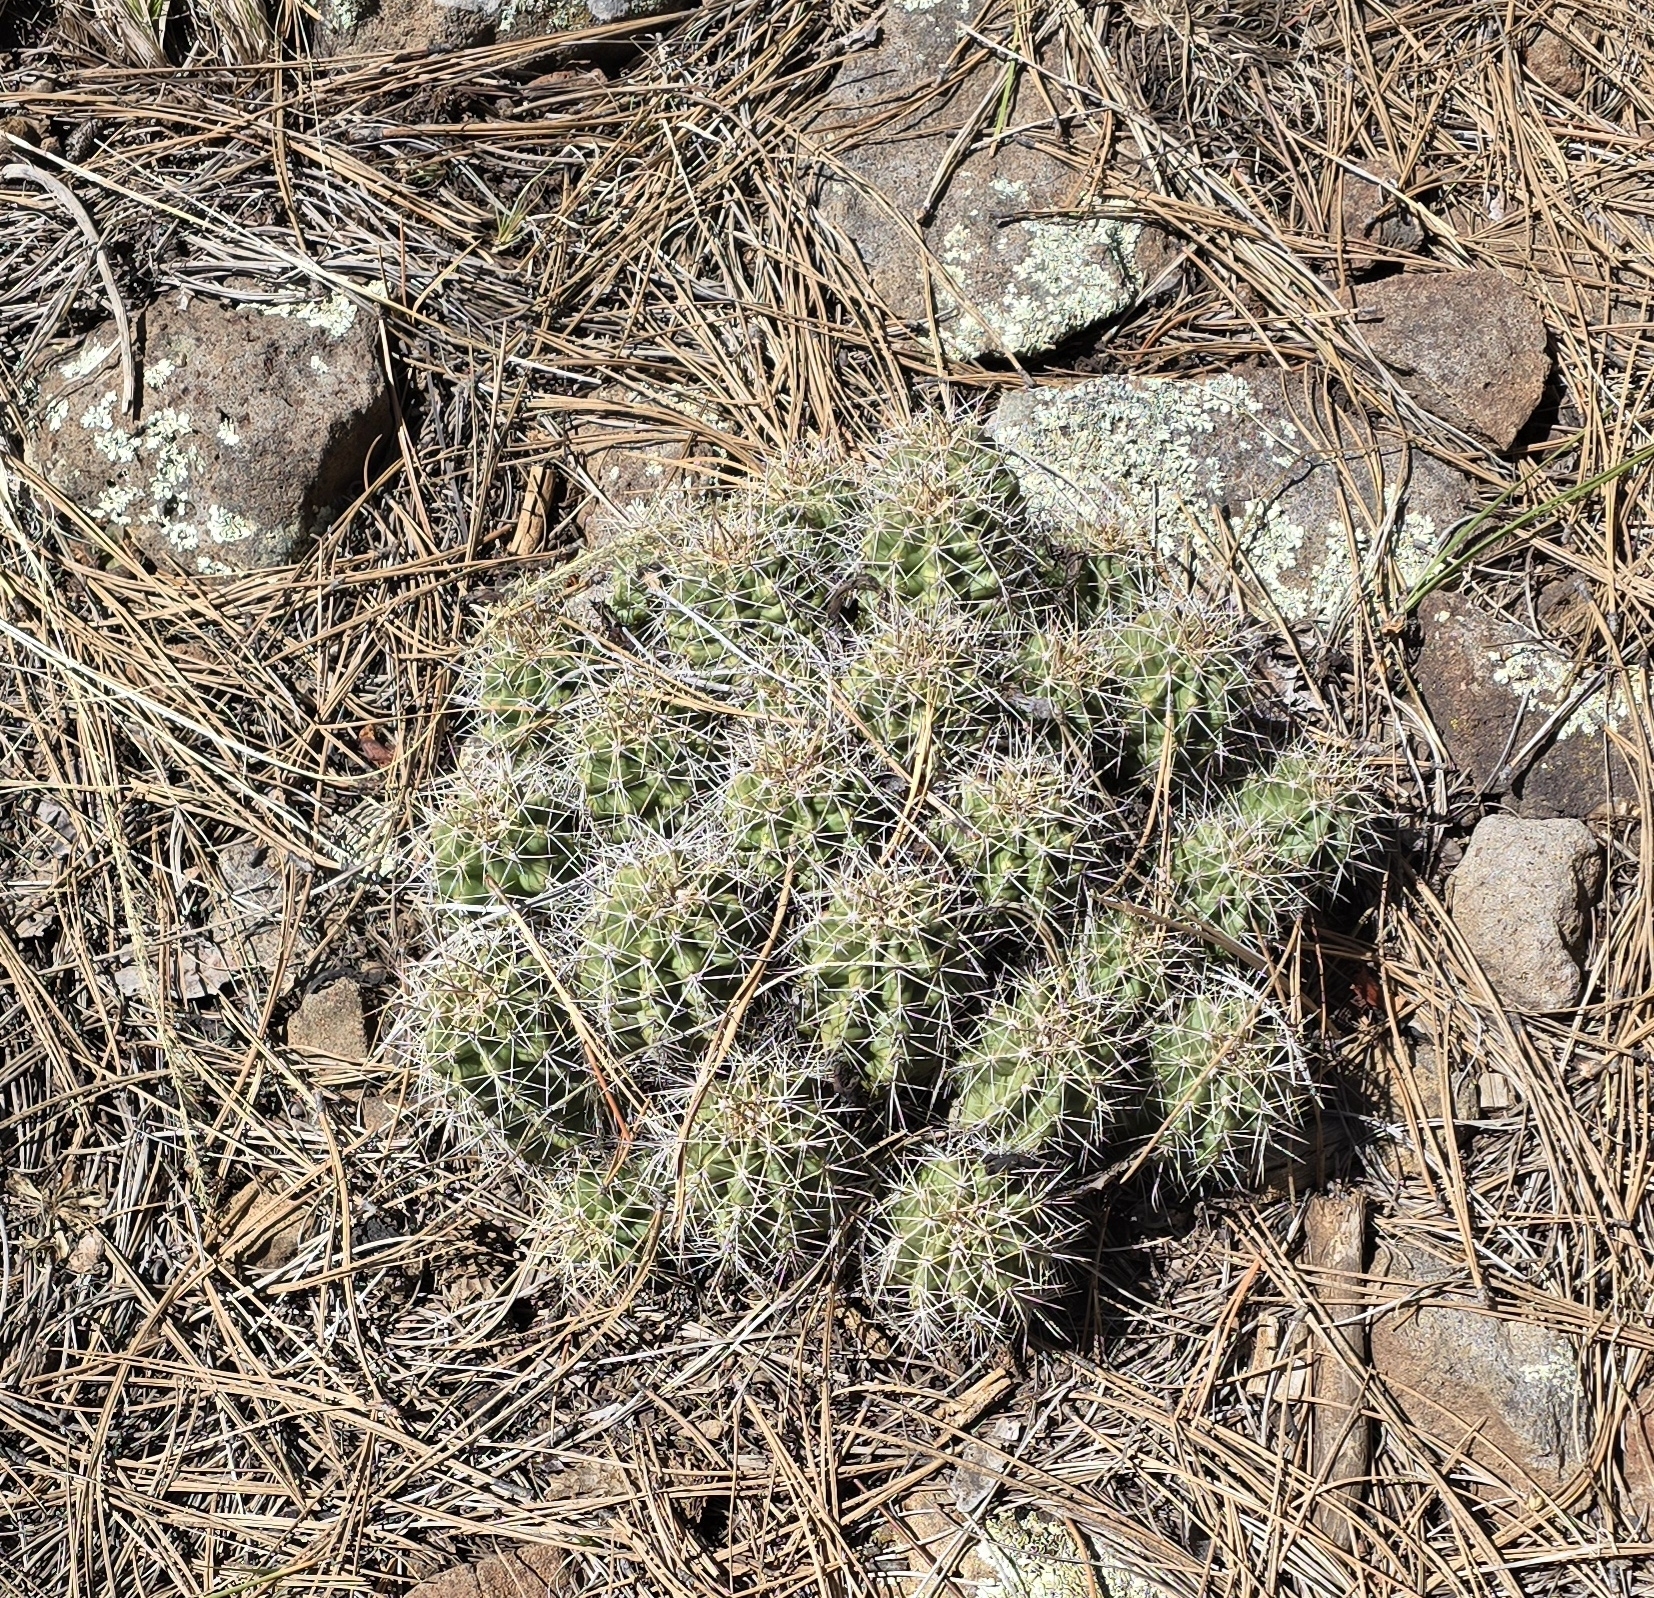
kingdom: Plantae
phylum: Tracheophyta
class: Magnoliopsida
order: Caryophyllales
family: Cactaceae
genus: Echinocereus
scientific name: Echinocereus triglochidiatus
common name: Claretcup hedgehog
